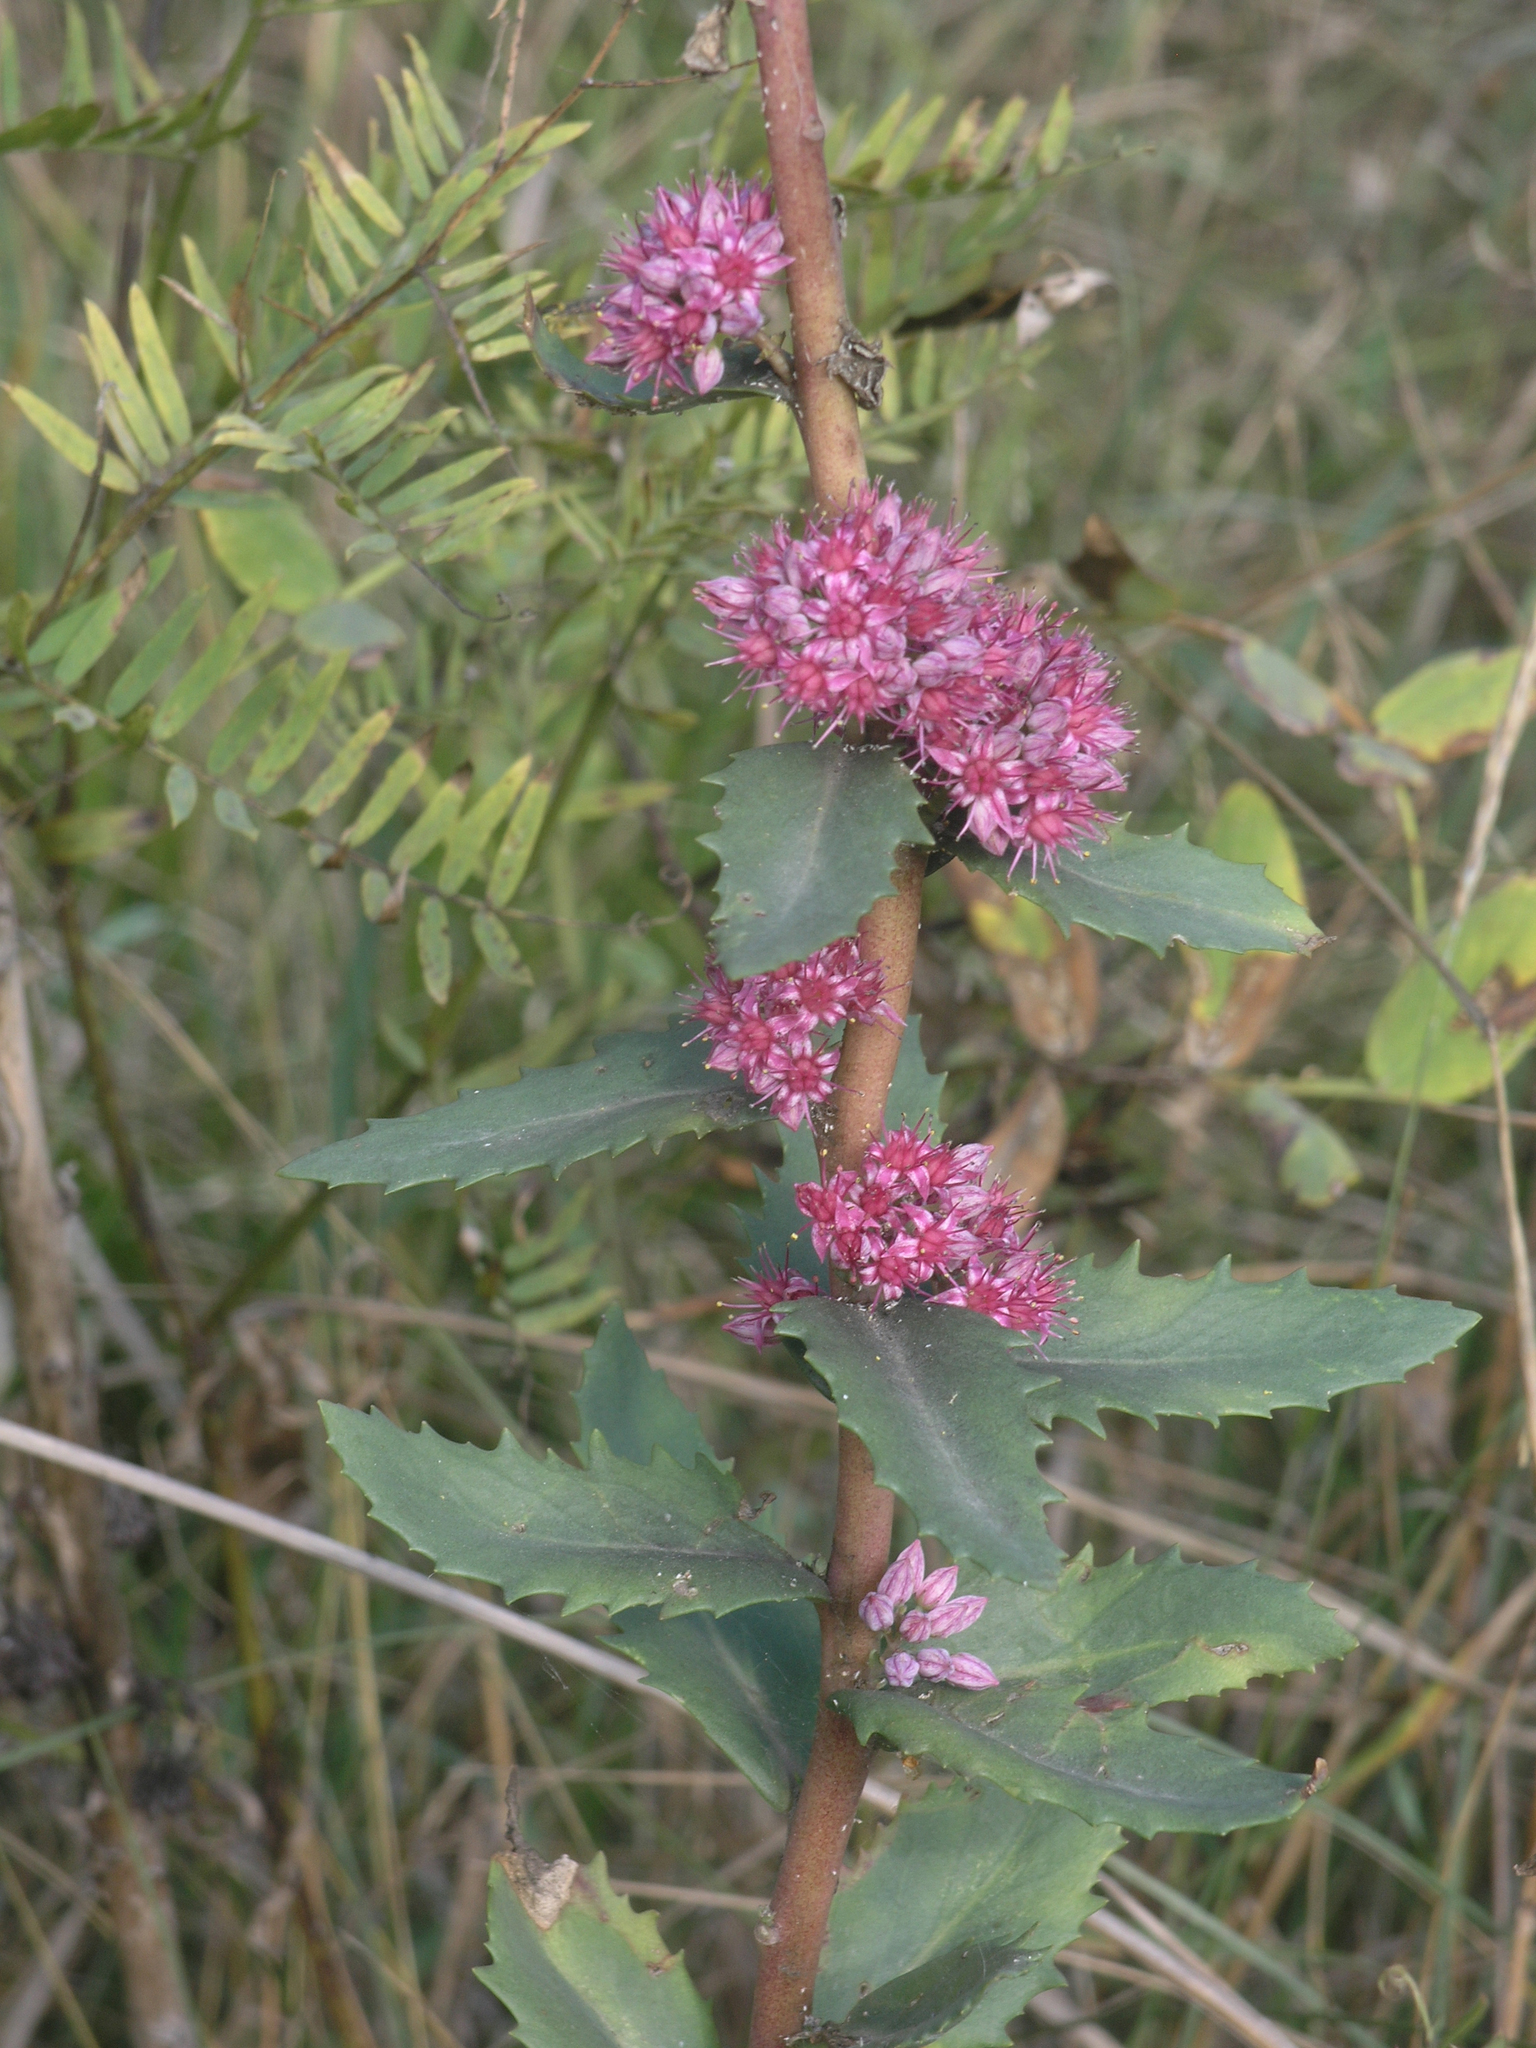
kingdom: Plantae
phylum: Tracheophyta
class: Magnoliopsida
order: Saxifragales
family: Crassulaceae
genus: Hylotelephium
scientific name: Hylotelephium telephium
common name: Live-forever
